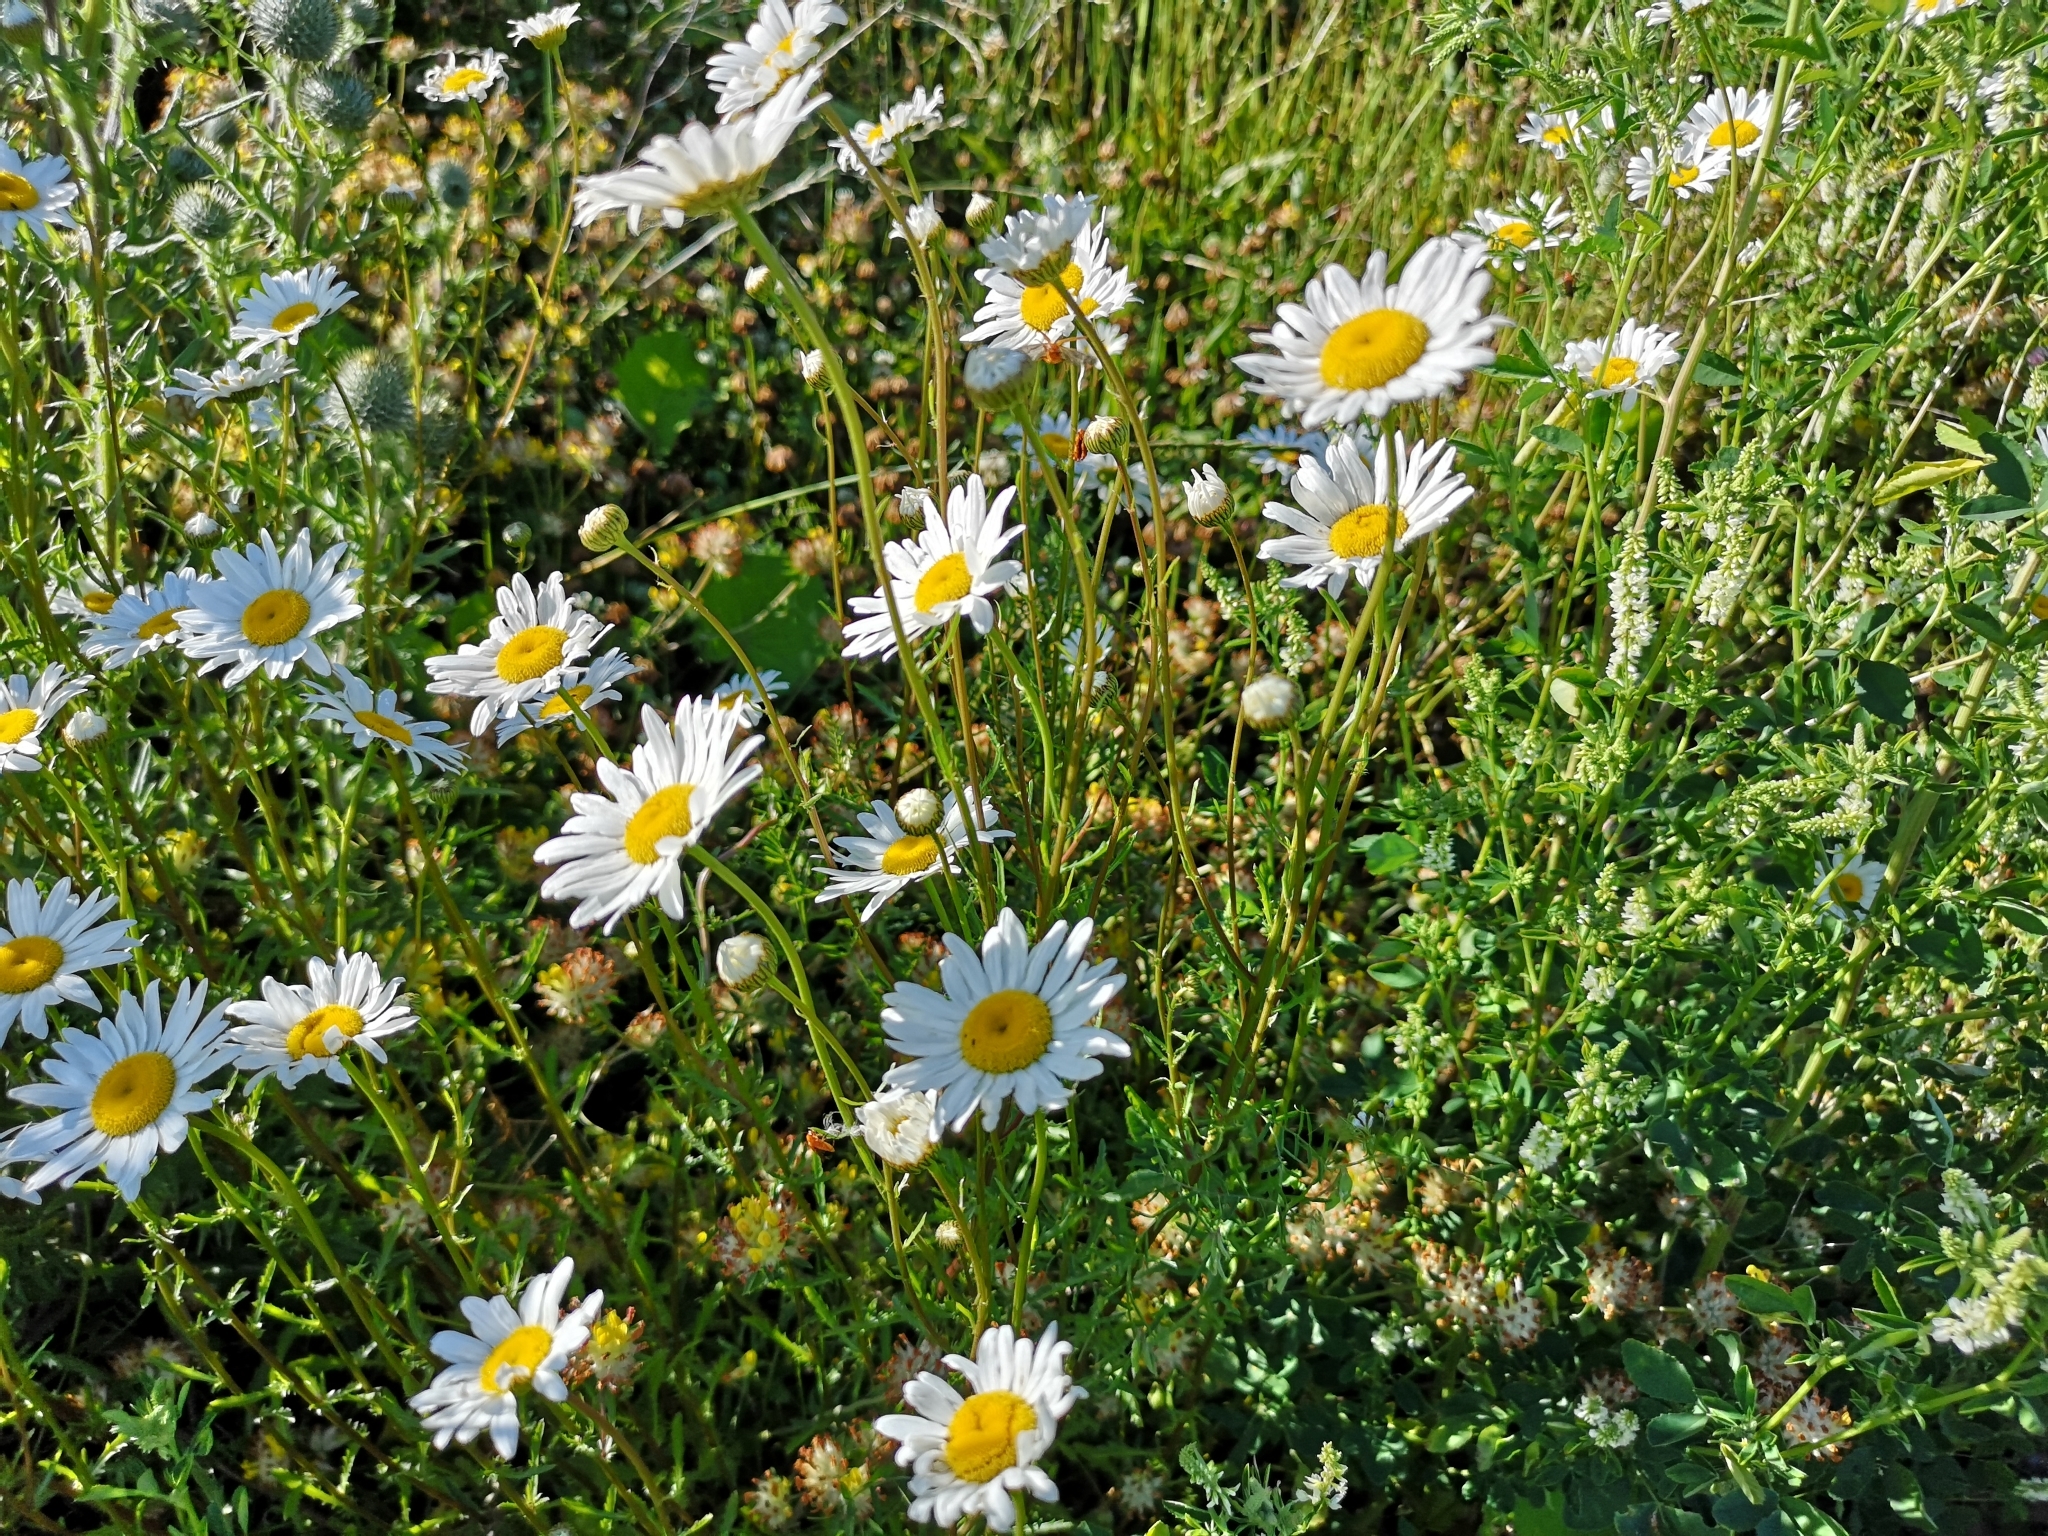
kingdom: Plantae
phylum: Tracheophyta
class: Magnoliopsida
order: Asterales
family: Asteraceae
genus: Leucanthemum
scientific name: Leucanthemum vulgare
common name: Oxeye daisy
